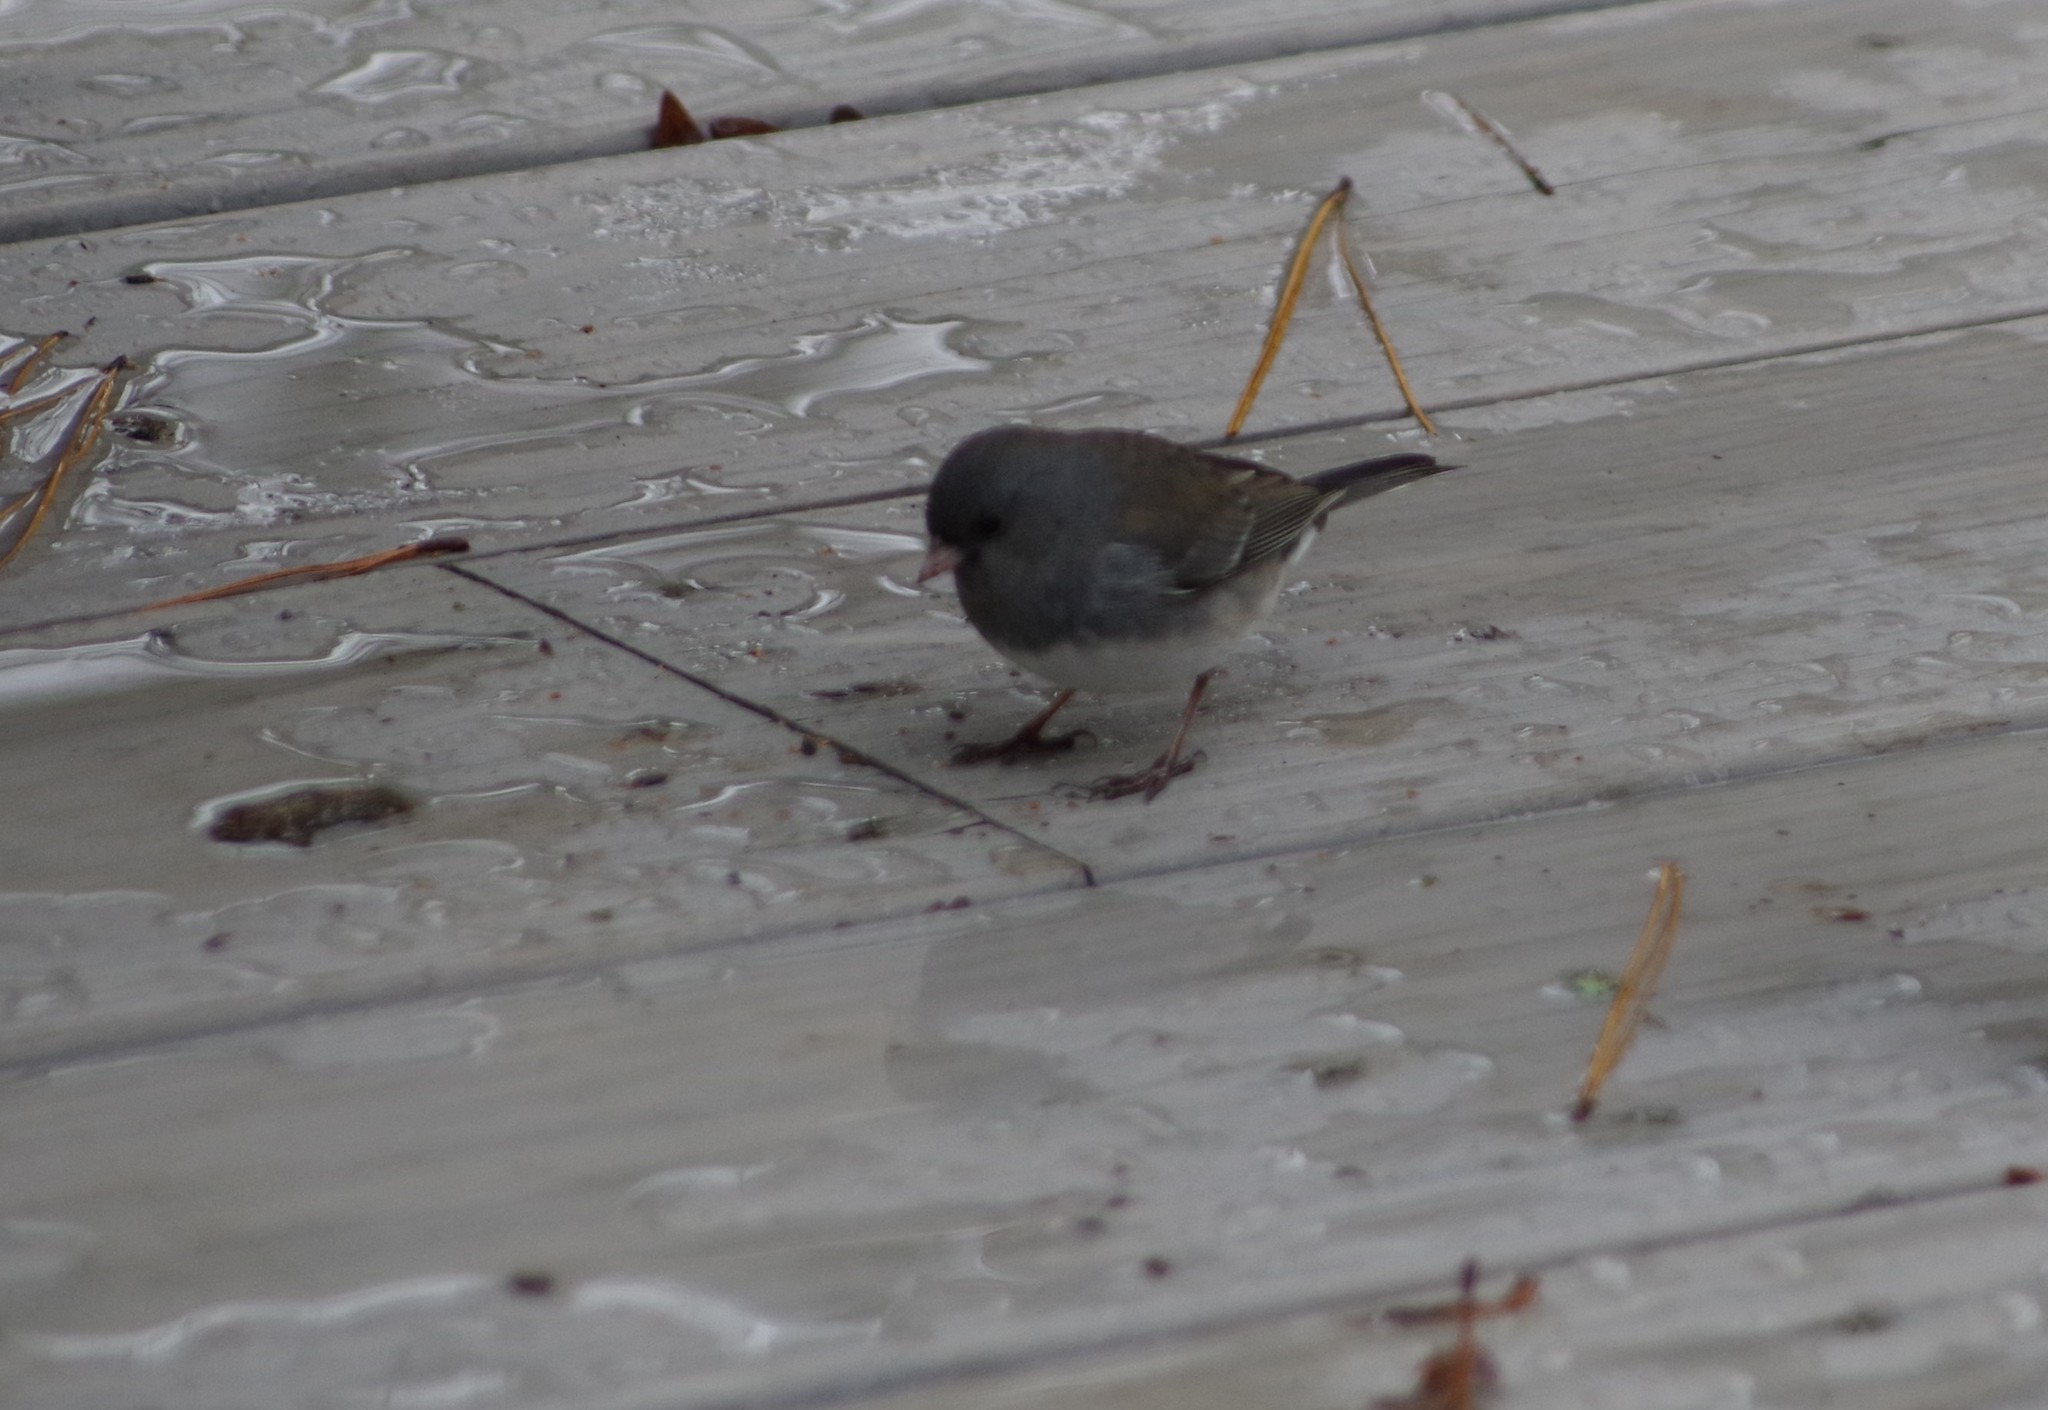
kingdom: Animalia
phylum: Chordata
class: Aves
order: Passeriformes
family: Passerellidae
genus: Junco
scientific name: Junco hyemalis
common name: Dark-eyed junco
